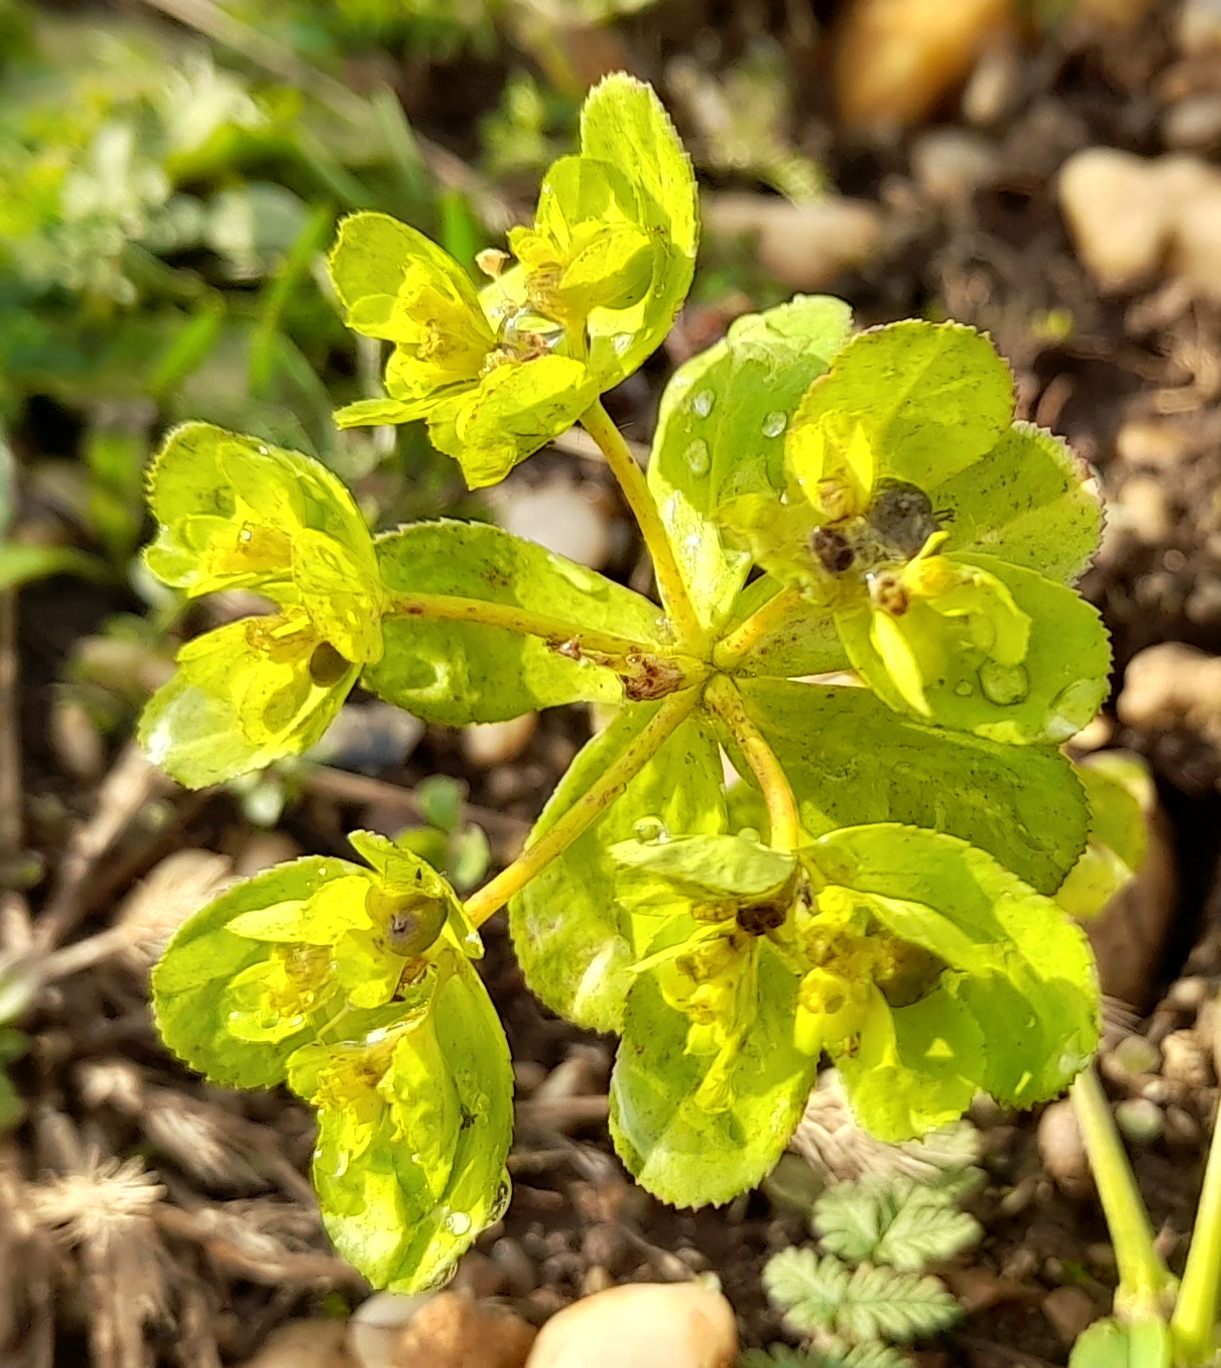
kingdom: Plantae
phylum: Tracheophyta
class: Magnoliopsida
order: Malpighiales
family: Euphorbiaceae
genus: Euphorbia
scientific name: Euphorbia helioscopia
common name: Sun spurge
